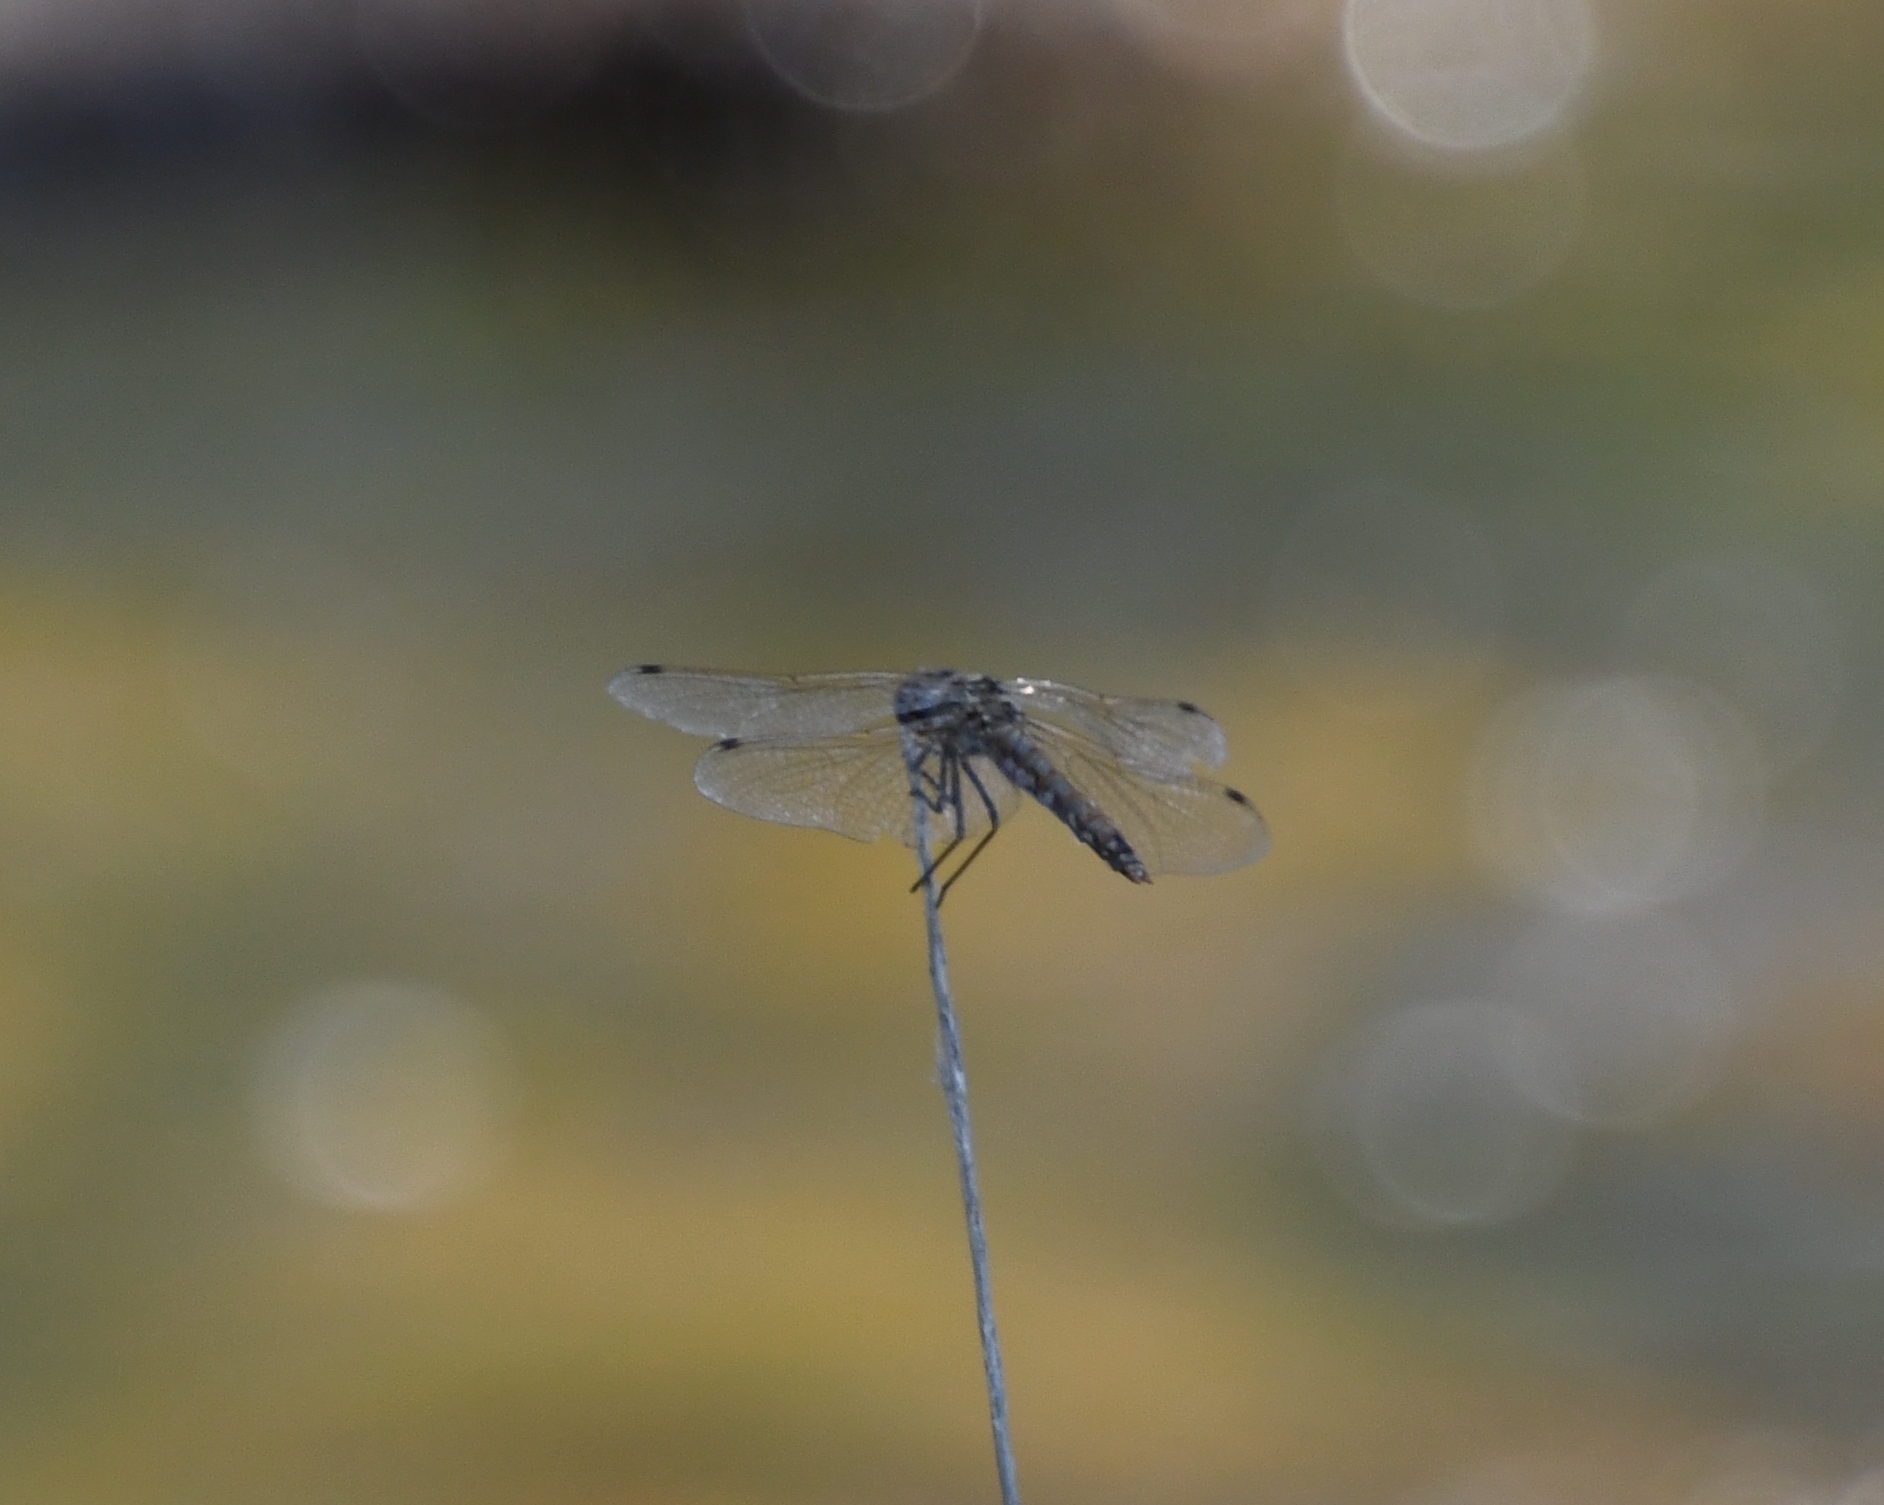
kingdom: Animalia
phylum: Arthropoda
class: Insecta
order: Odonata
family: Libellulidae
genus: Sympetrum
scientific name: Sympetrum corruptum
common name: Variegated meadowhawk
